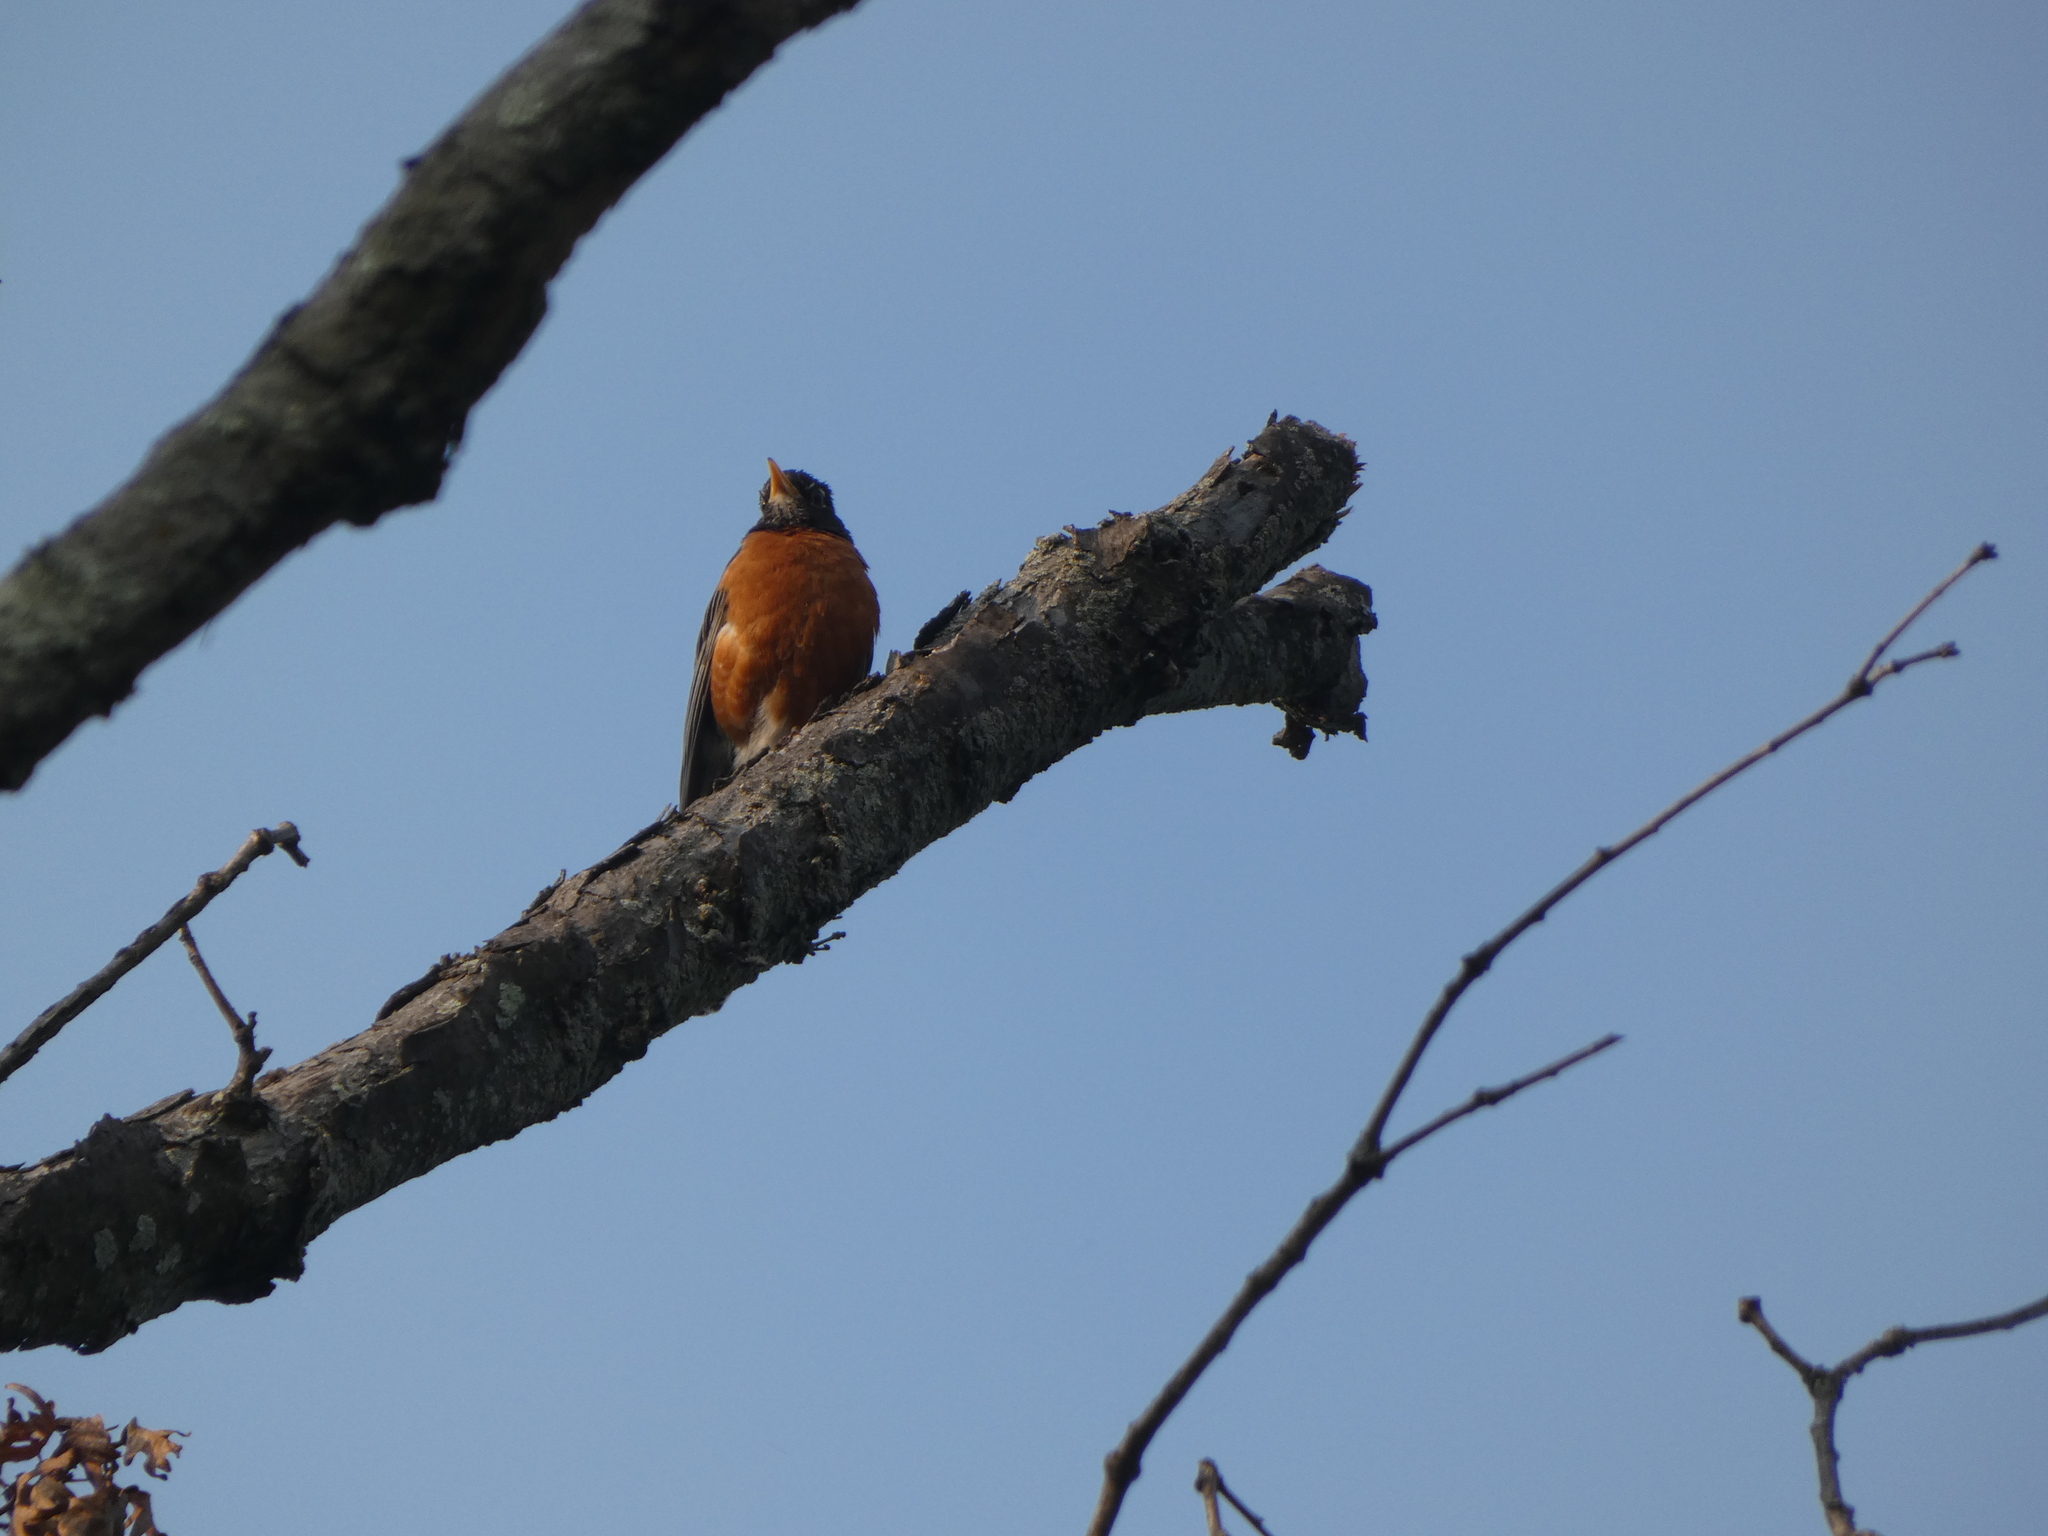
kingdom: Animalia
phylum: Chordata
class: Aves
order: Passeriformes
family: Turdidae
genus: Turdus
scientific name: Turdus migratorius
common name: American robin
